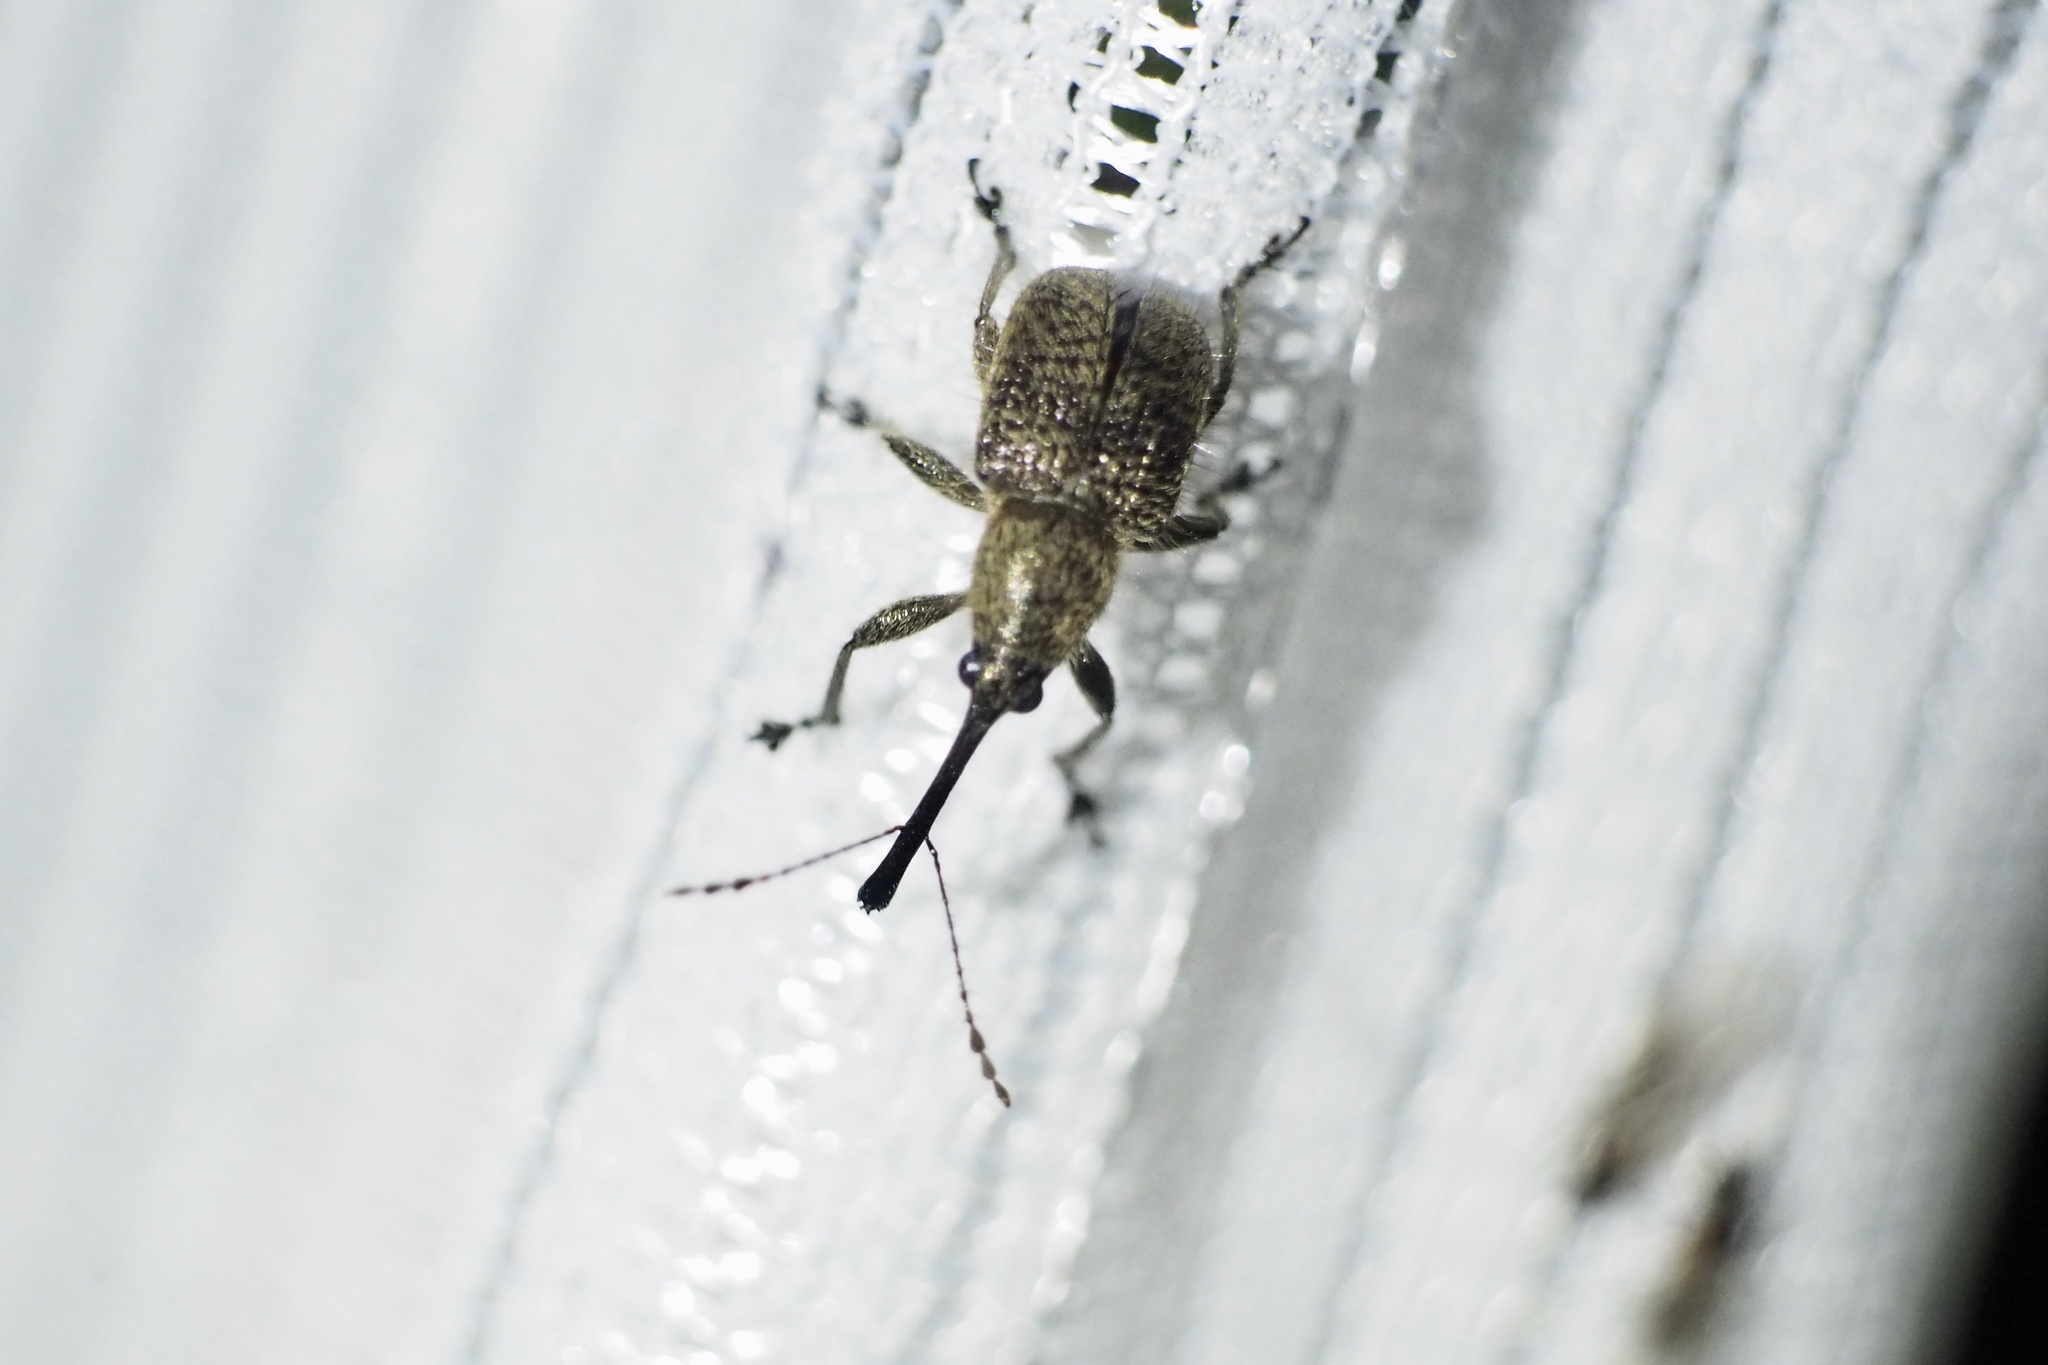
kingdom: Animalia
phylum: Arthropoda
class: Insecta
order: Coleoptera
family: Attelabidae
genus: Cyllorhynchites
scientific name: Cyllorhynchites ursulus
